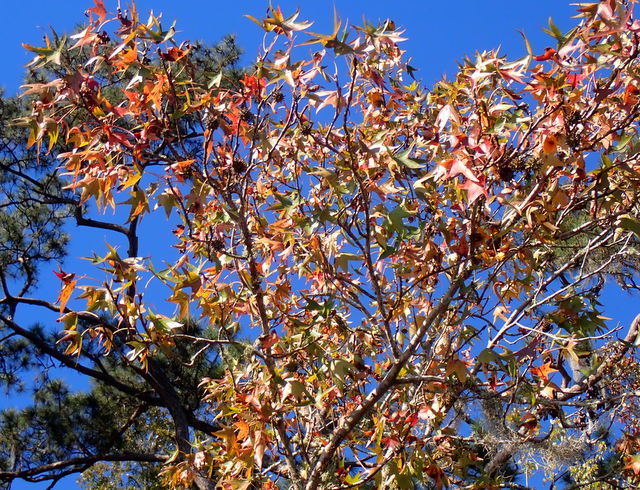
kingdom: Plantae
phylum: Tracheophyta
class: Magnoliopsida
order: Saxifragales
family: Altingiaceae
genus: Liquidambar
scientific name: Liquidambar styraciflua
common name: Sweet gum
